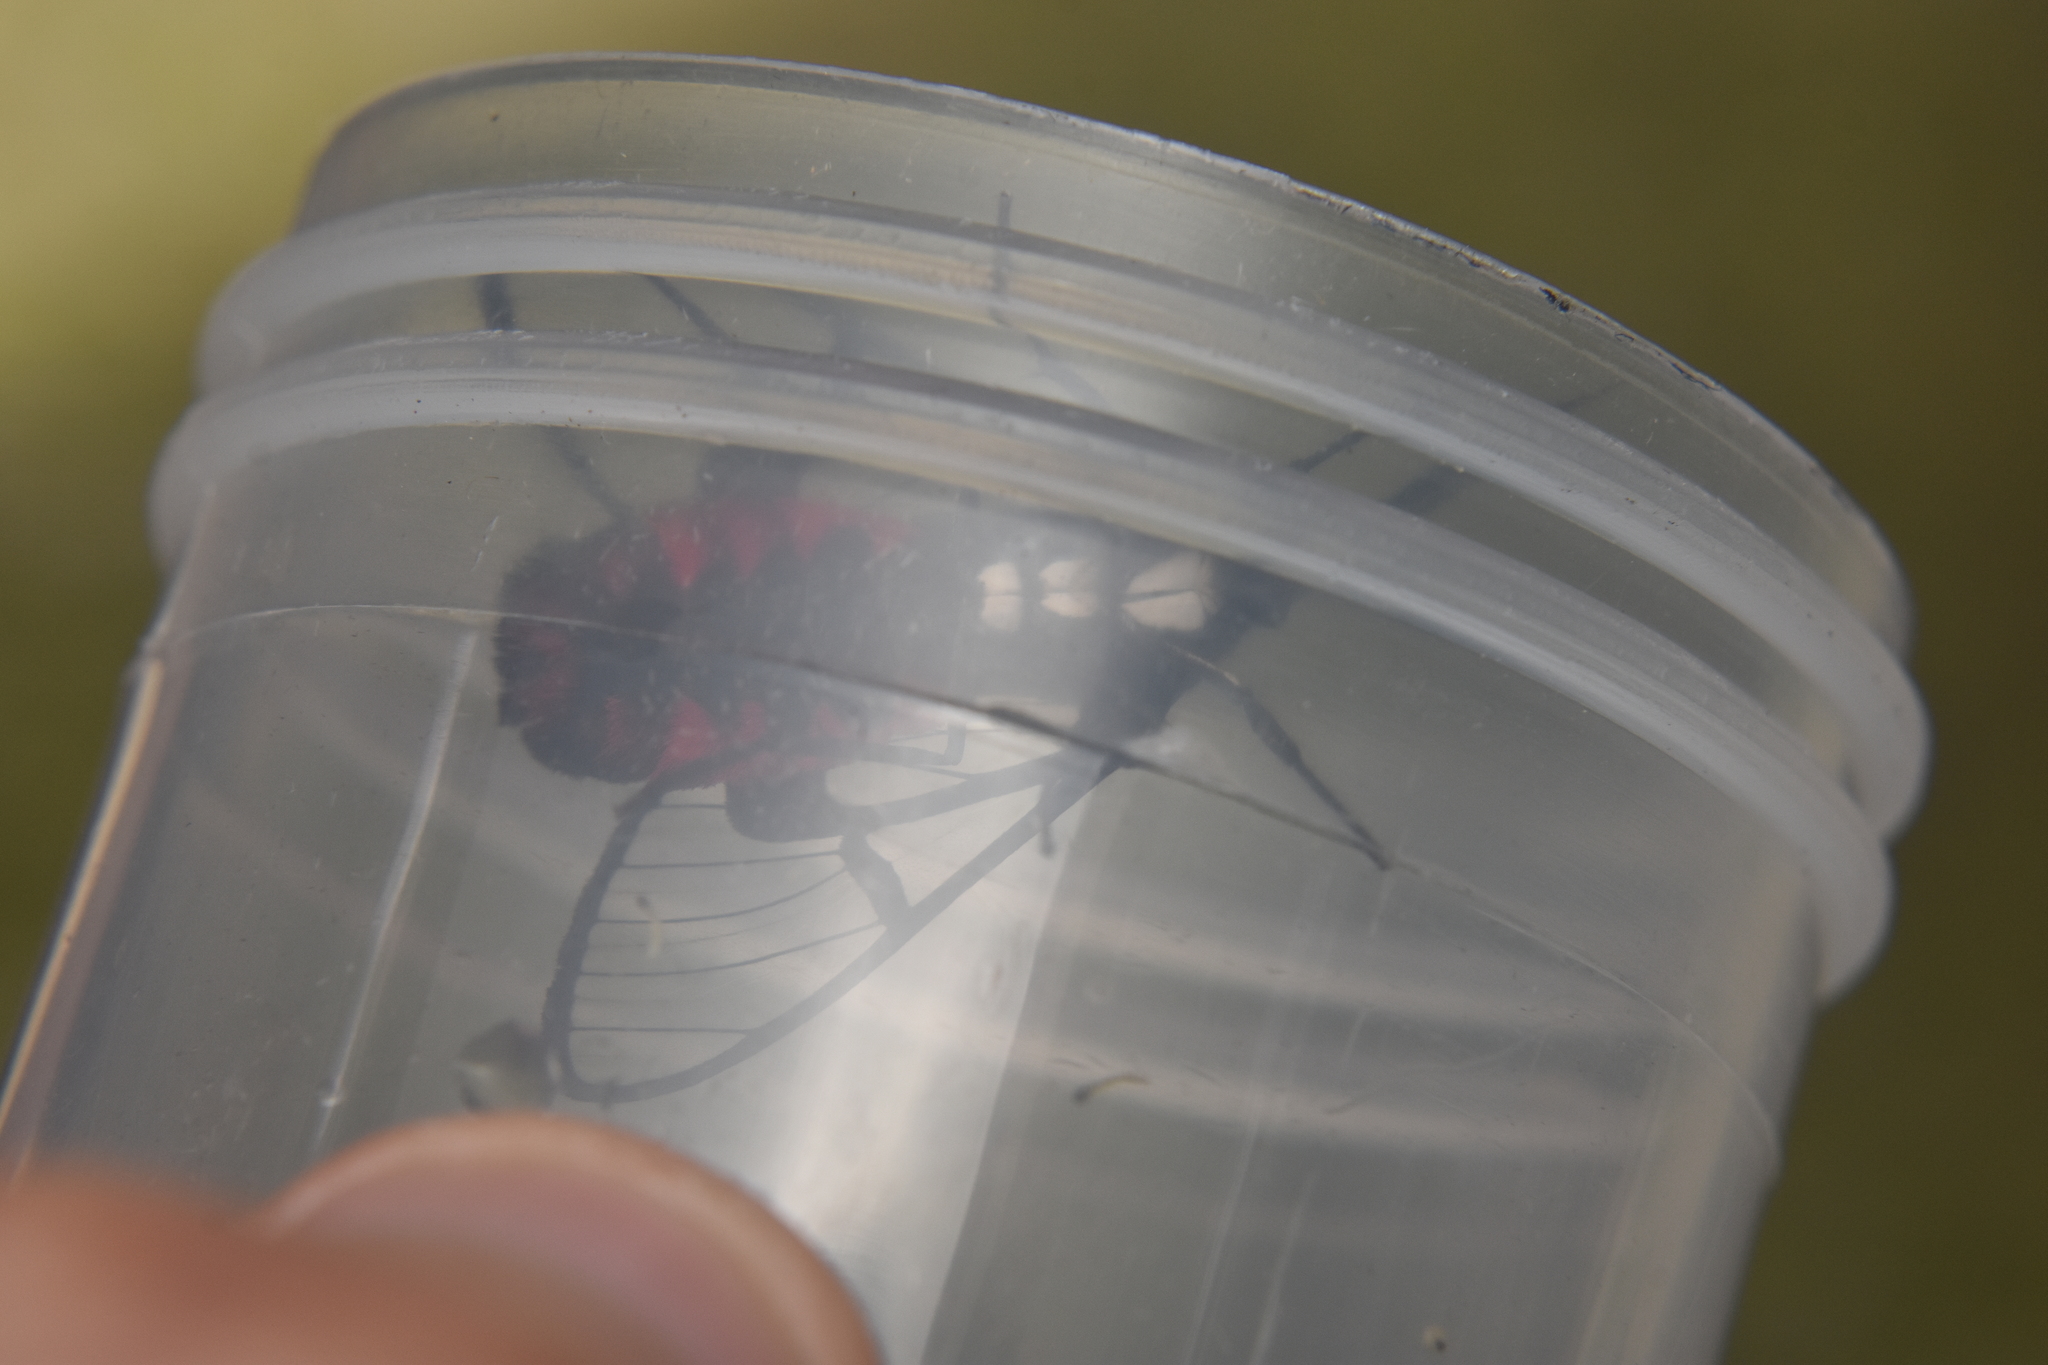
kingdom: Animalia
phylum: Arthropoda
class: Insecta
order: Lepidoptera
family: Erebidae
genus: Dinia
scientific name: Dinia mena
